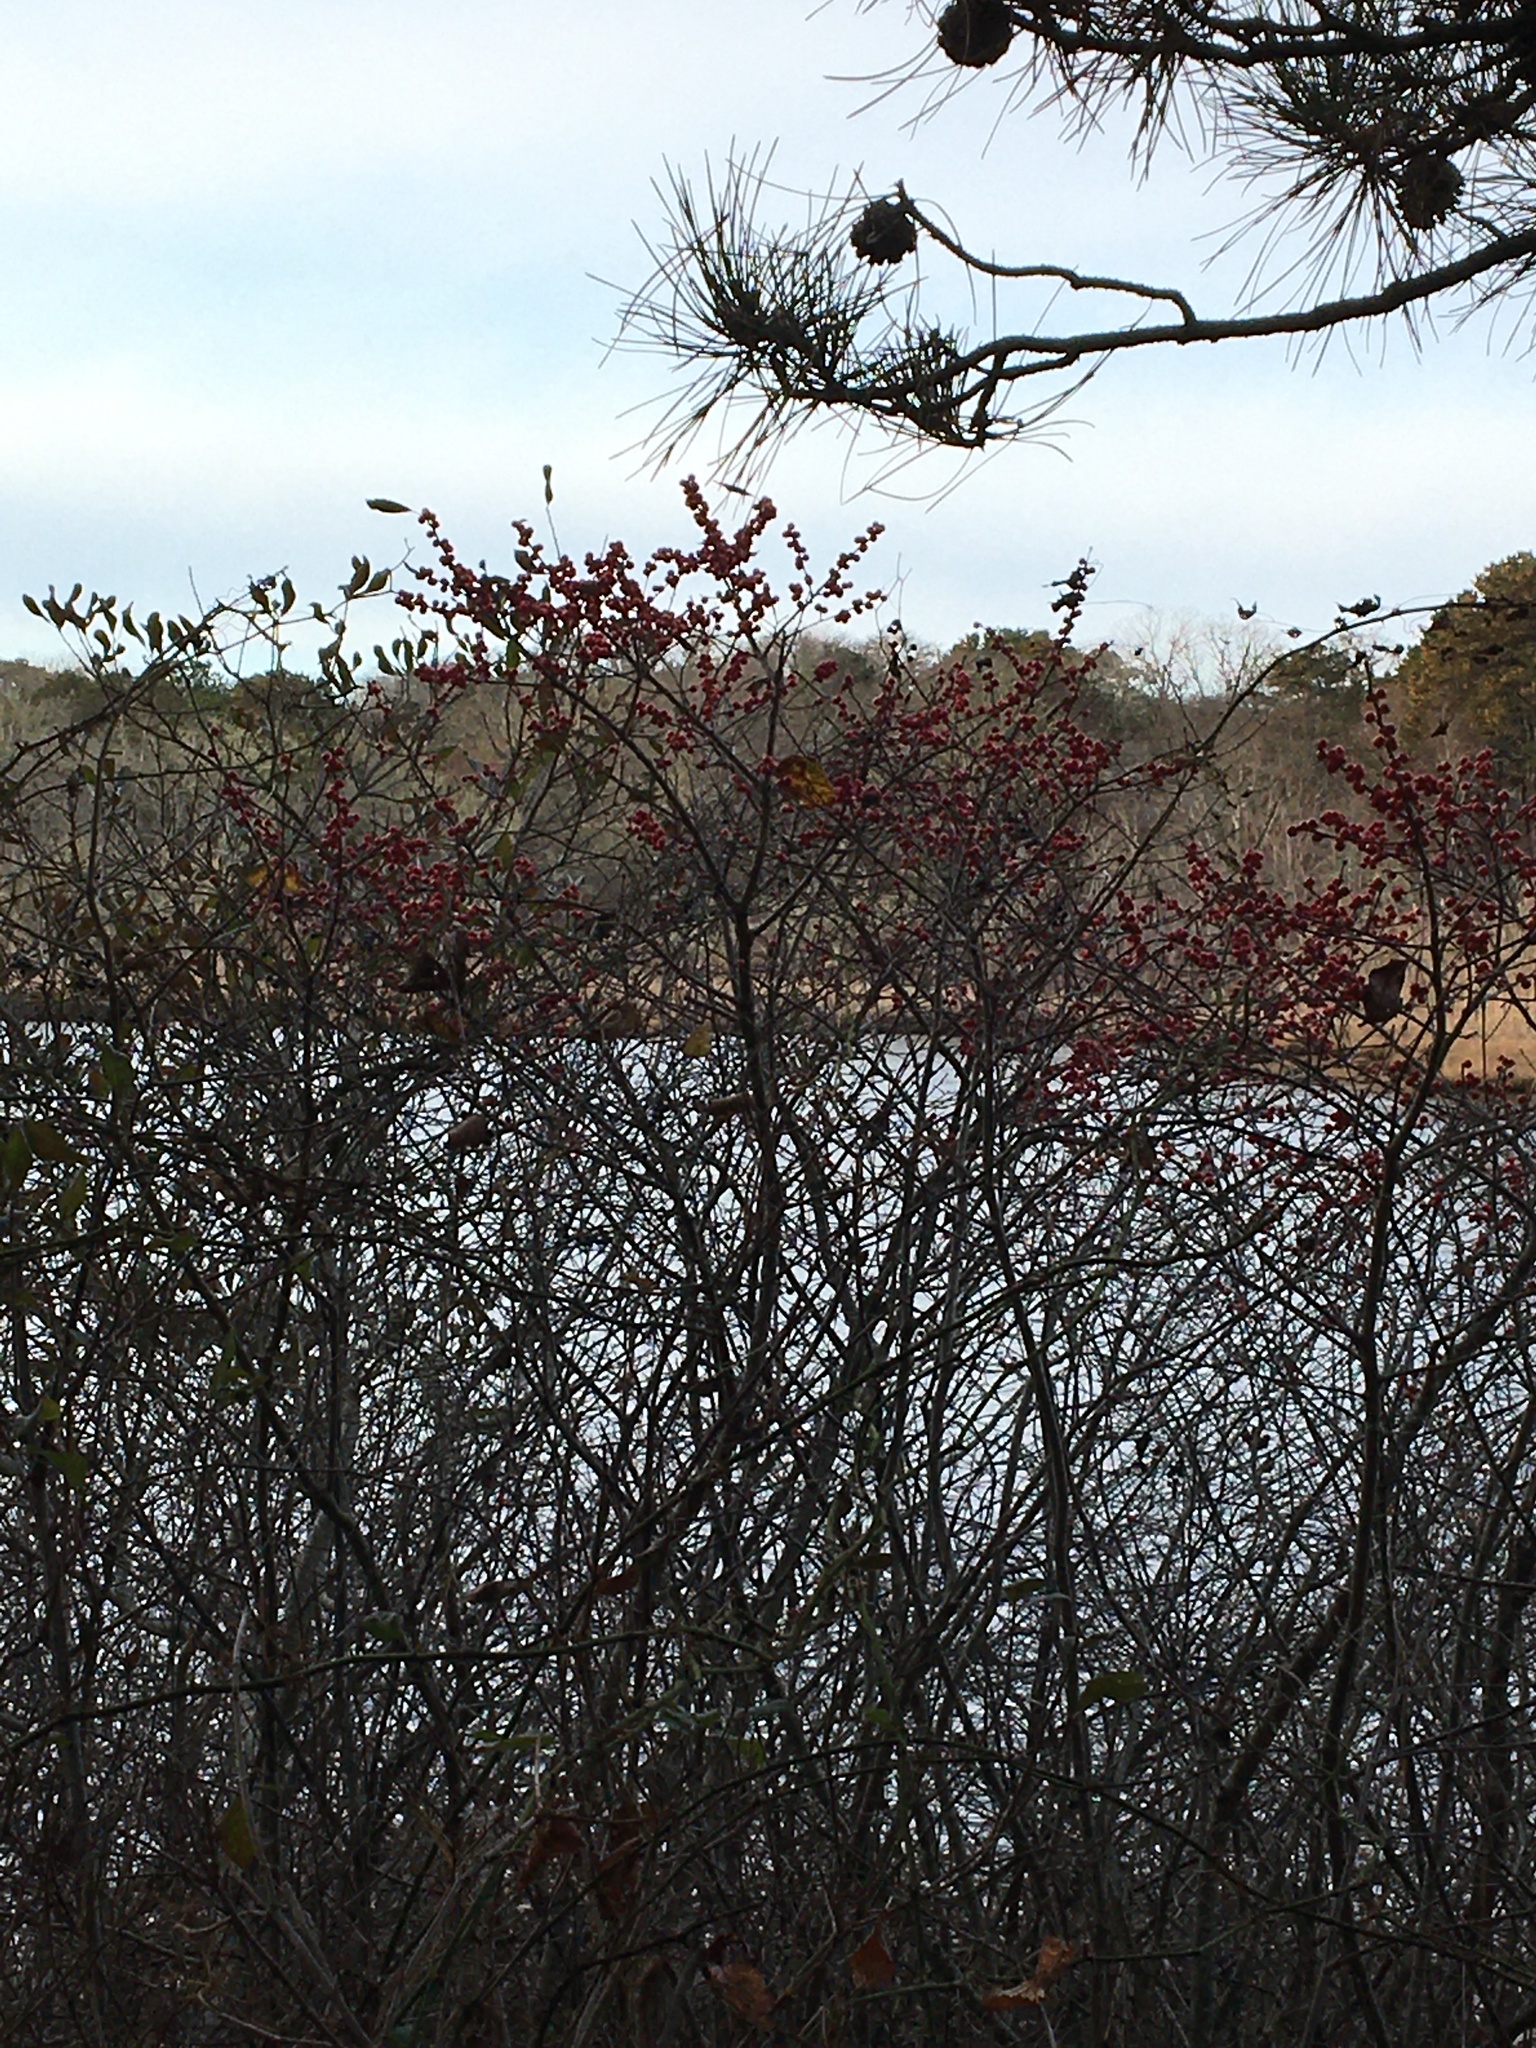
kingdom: Plantae
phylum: Tracheophyta
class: Magnoliopsida
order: Aquifoliales
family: Aquifoliaceae
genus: Ilex
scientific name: Ilex verticillata
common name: Virginia winterberry
